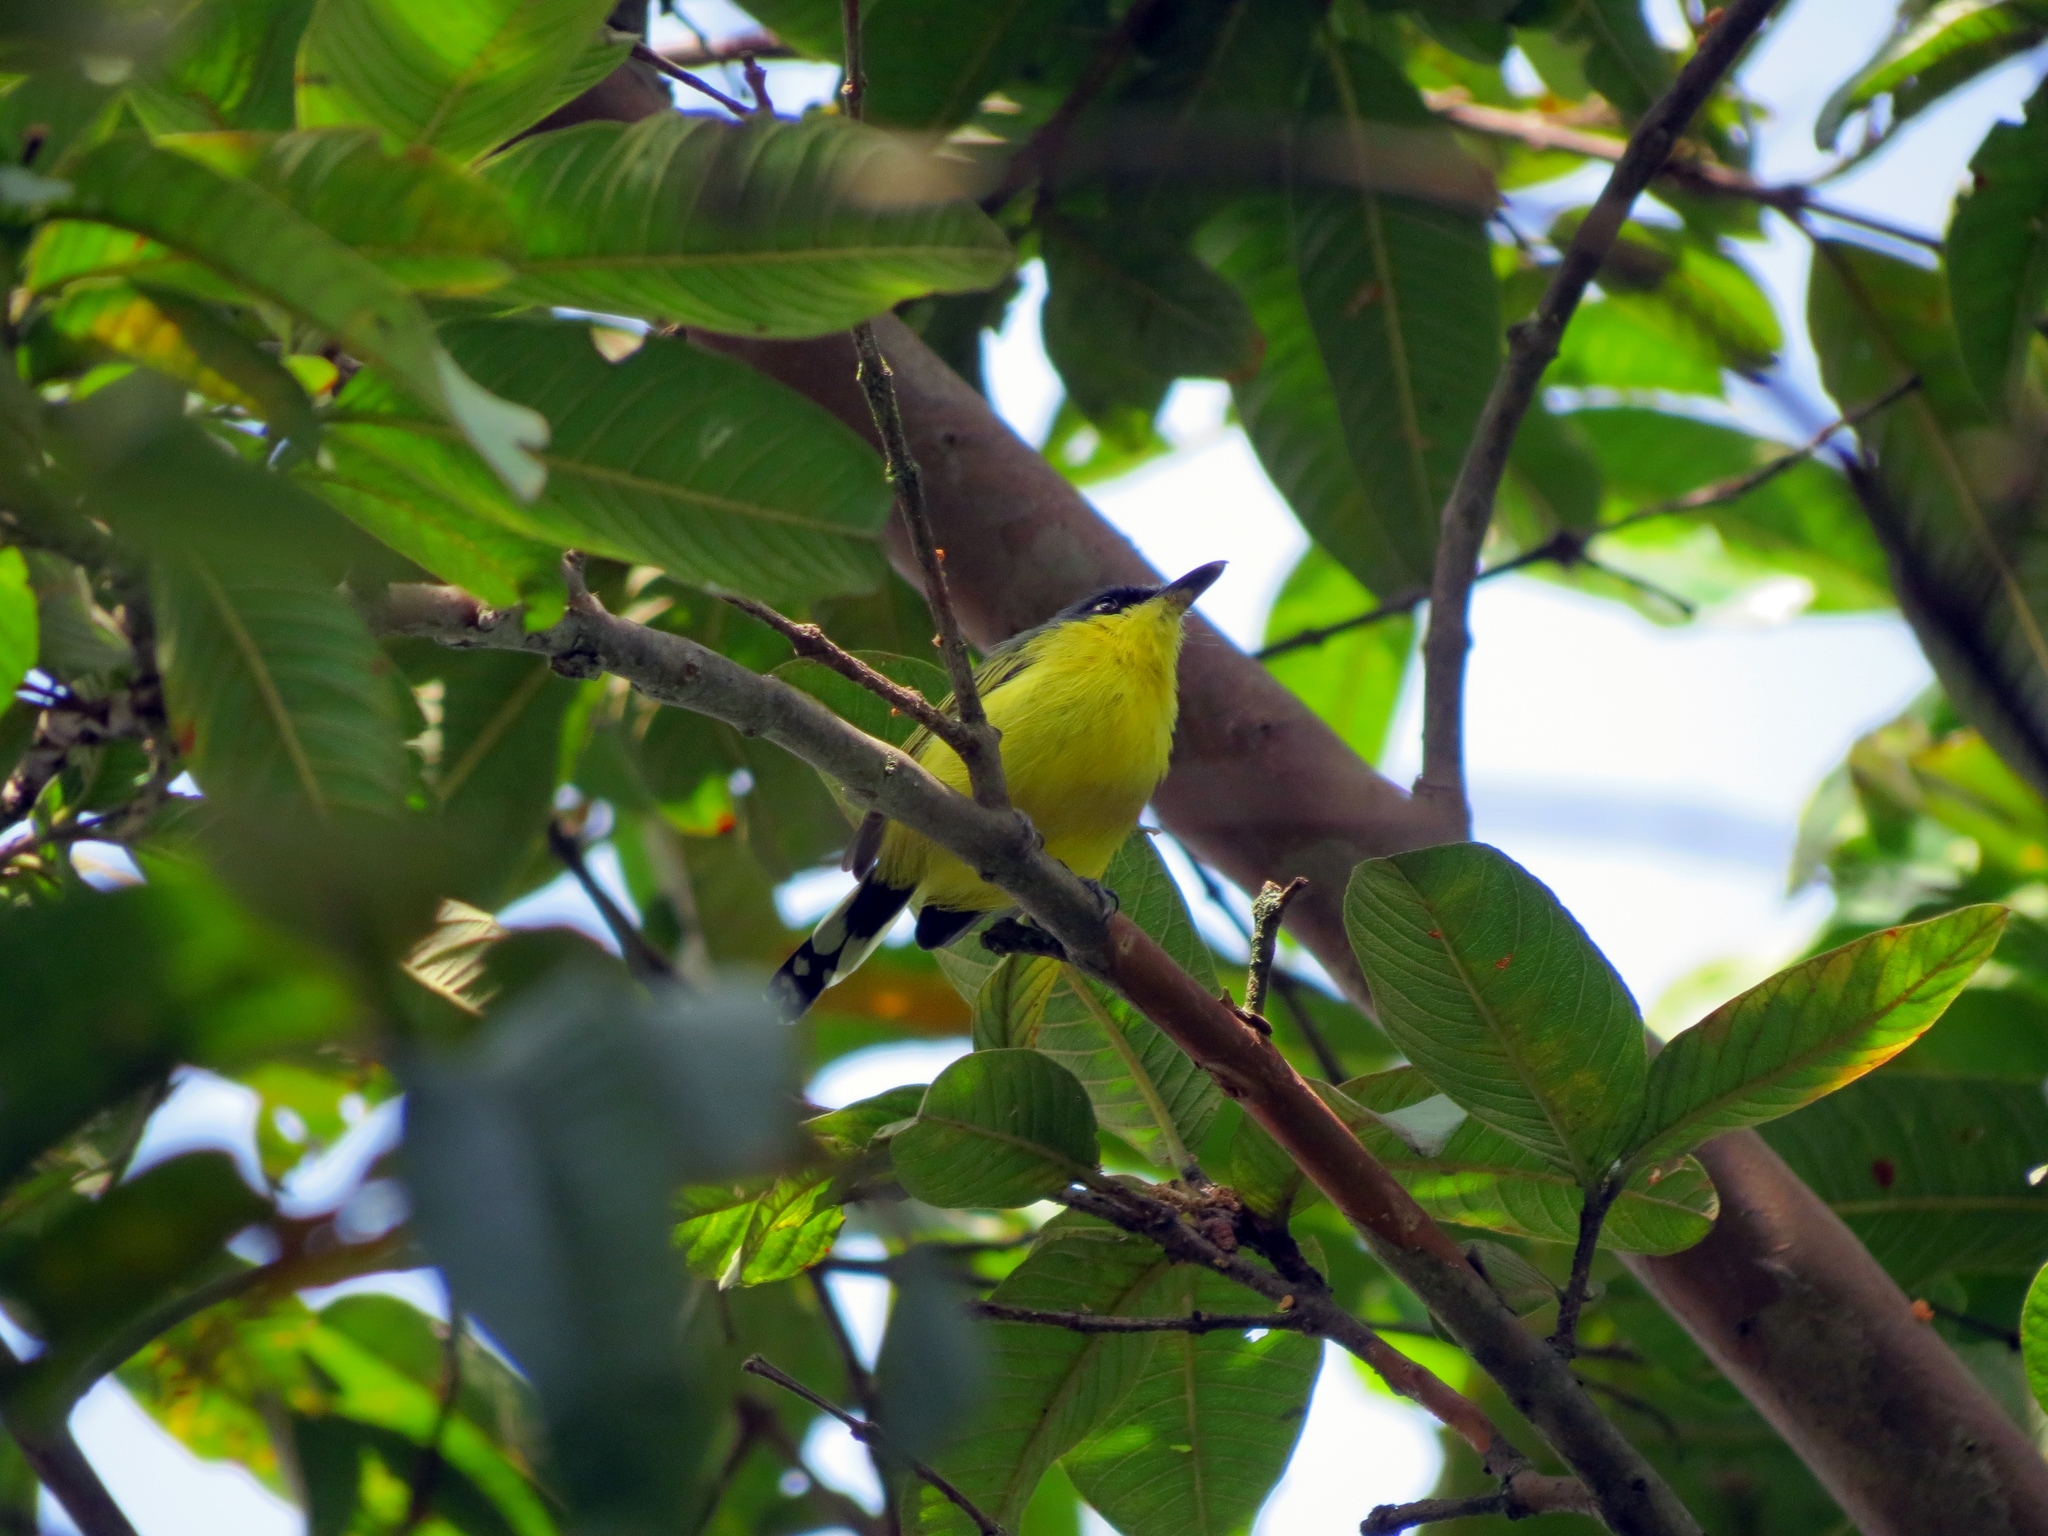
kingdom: Animalia
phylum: Chordata
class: Aves
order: Passeriformes
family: Tyrannidae
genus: Todirostrum
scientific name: Todirostrum cinereum
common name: Common tody-flycatcher
